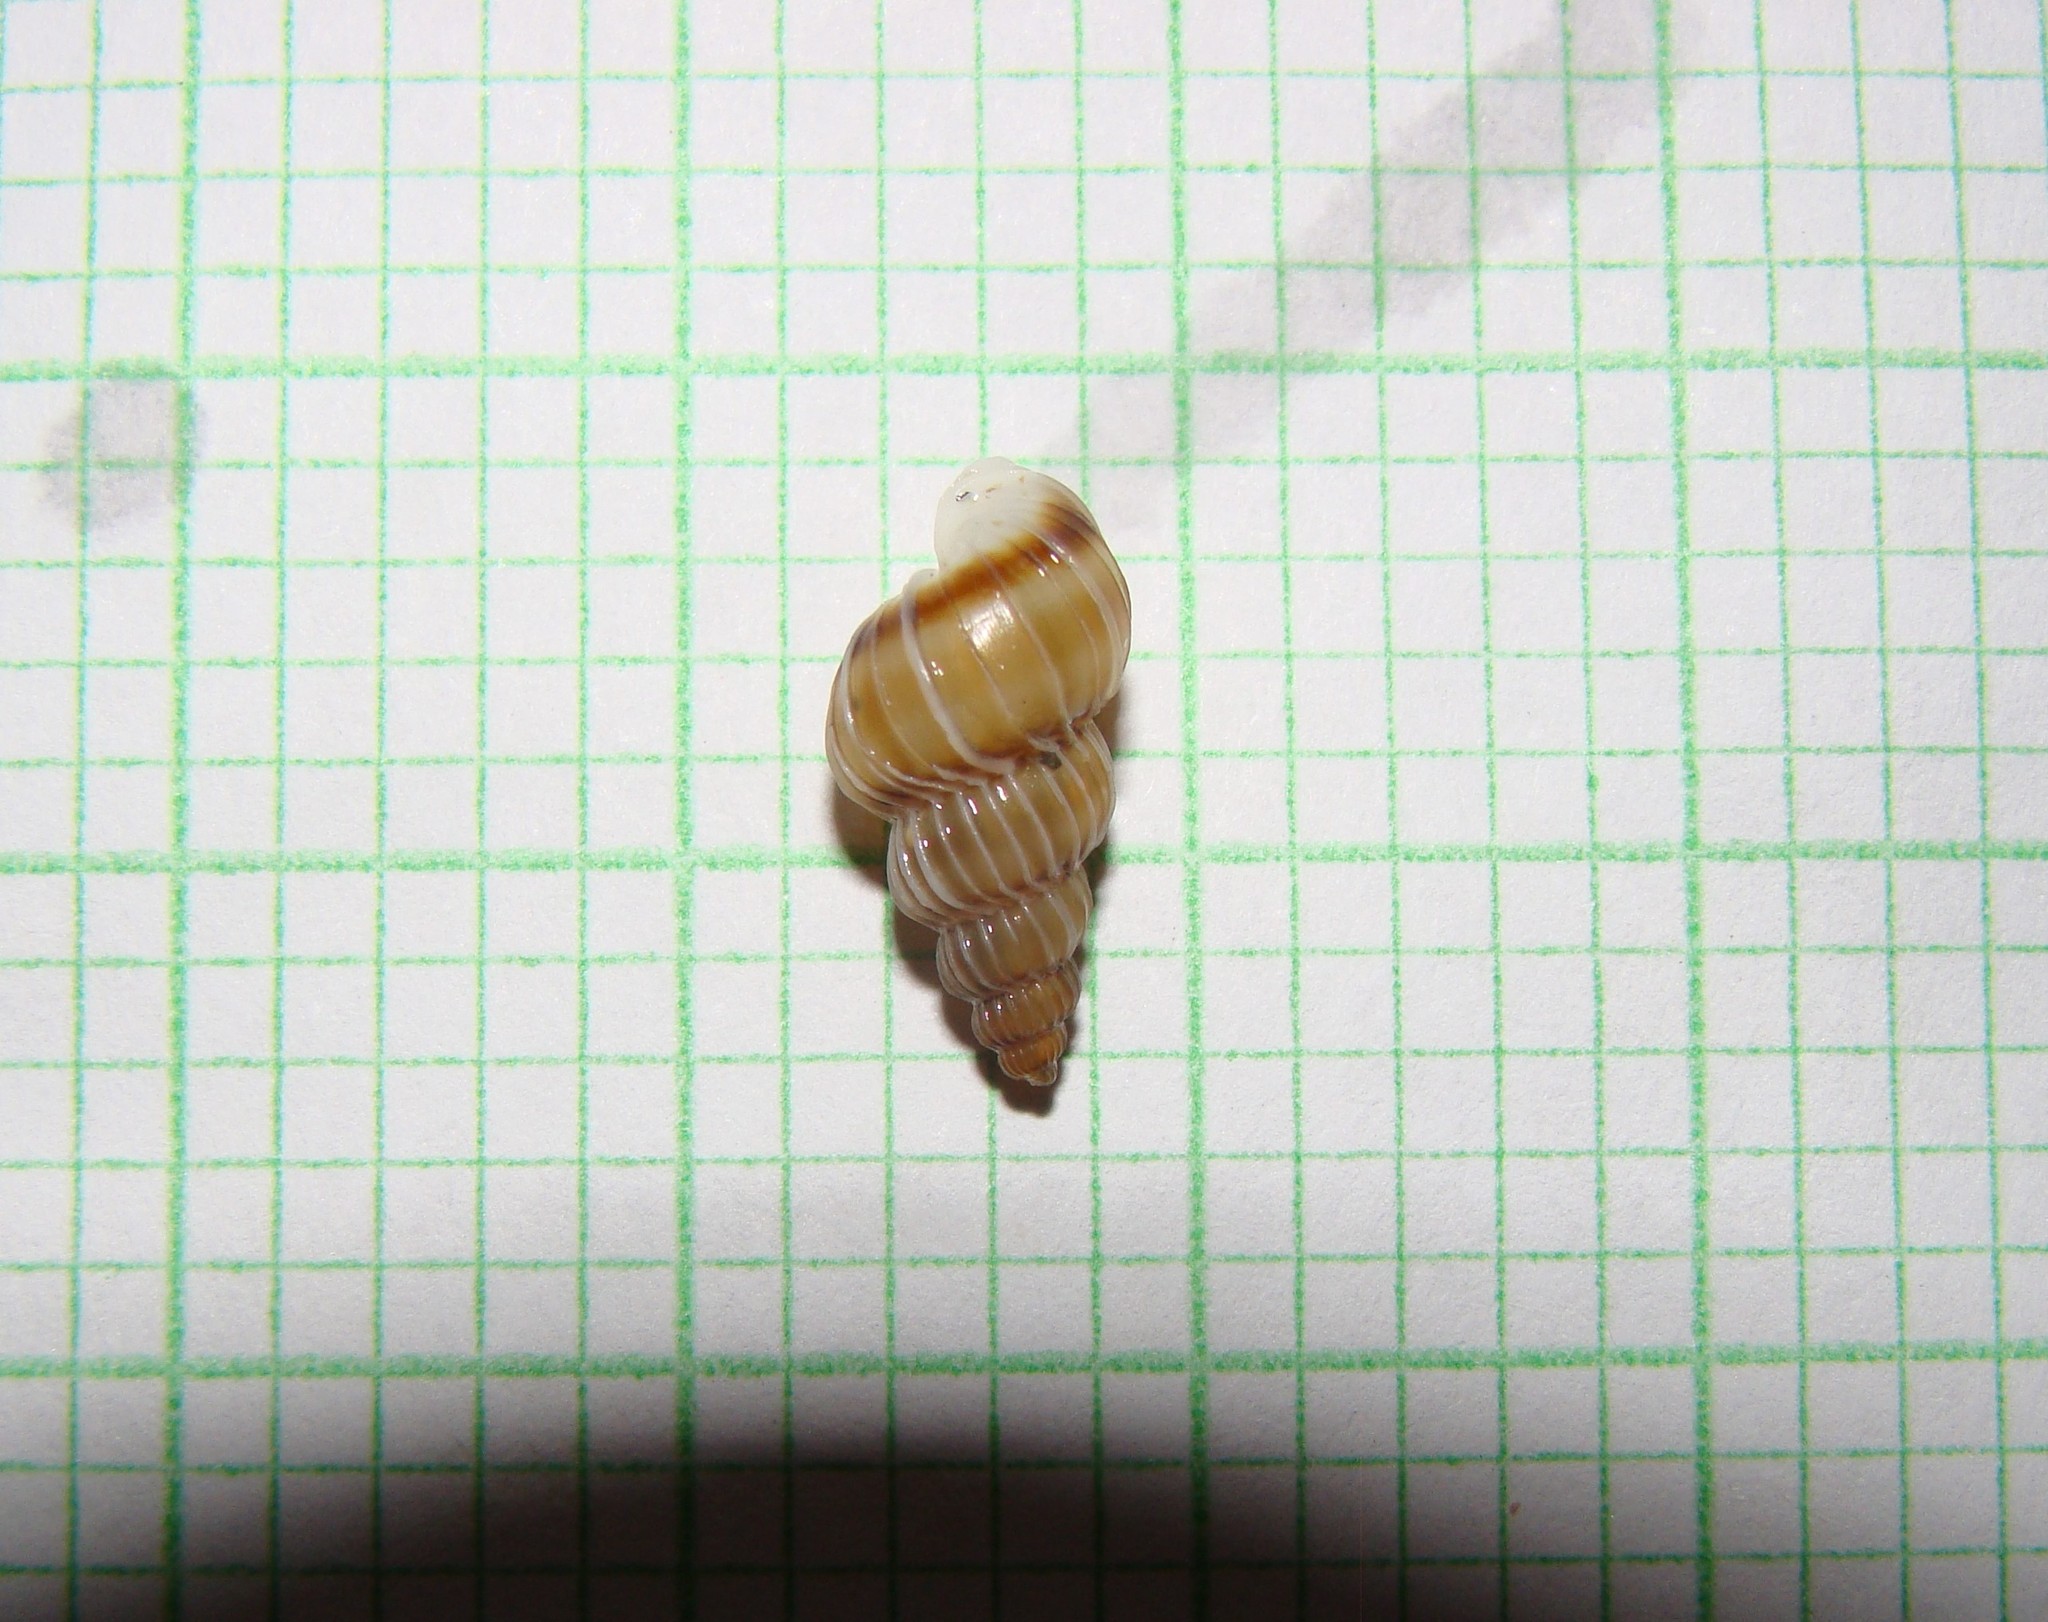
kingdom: Animalia
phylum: Mollusca
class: Gastropoda
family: Epitoniidae
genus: Epitonium
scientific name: Epitonium tenellum
